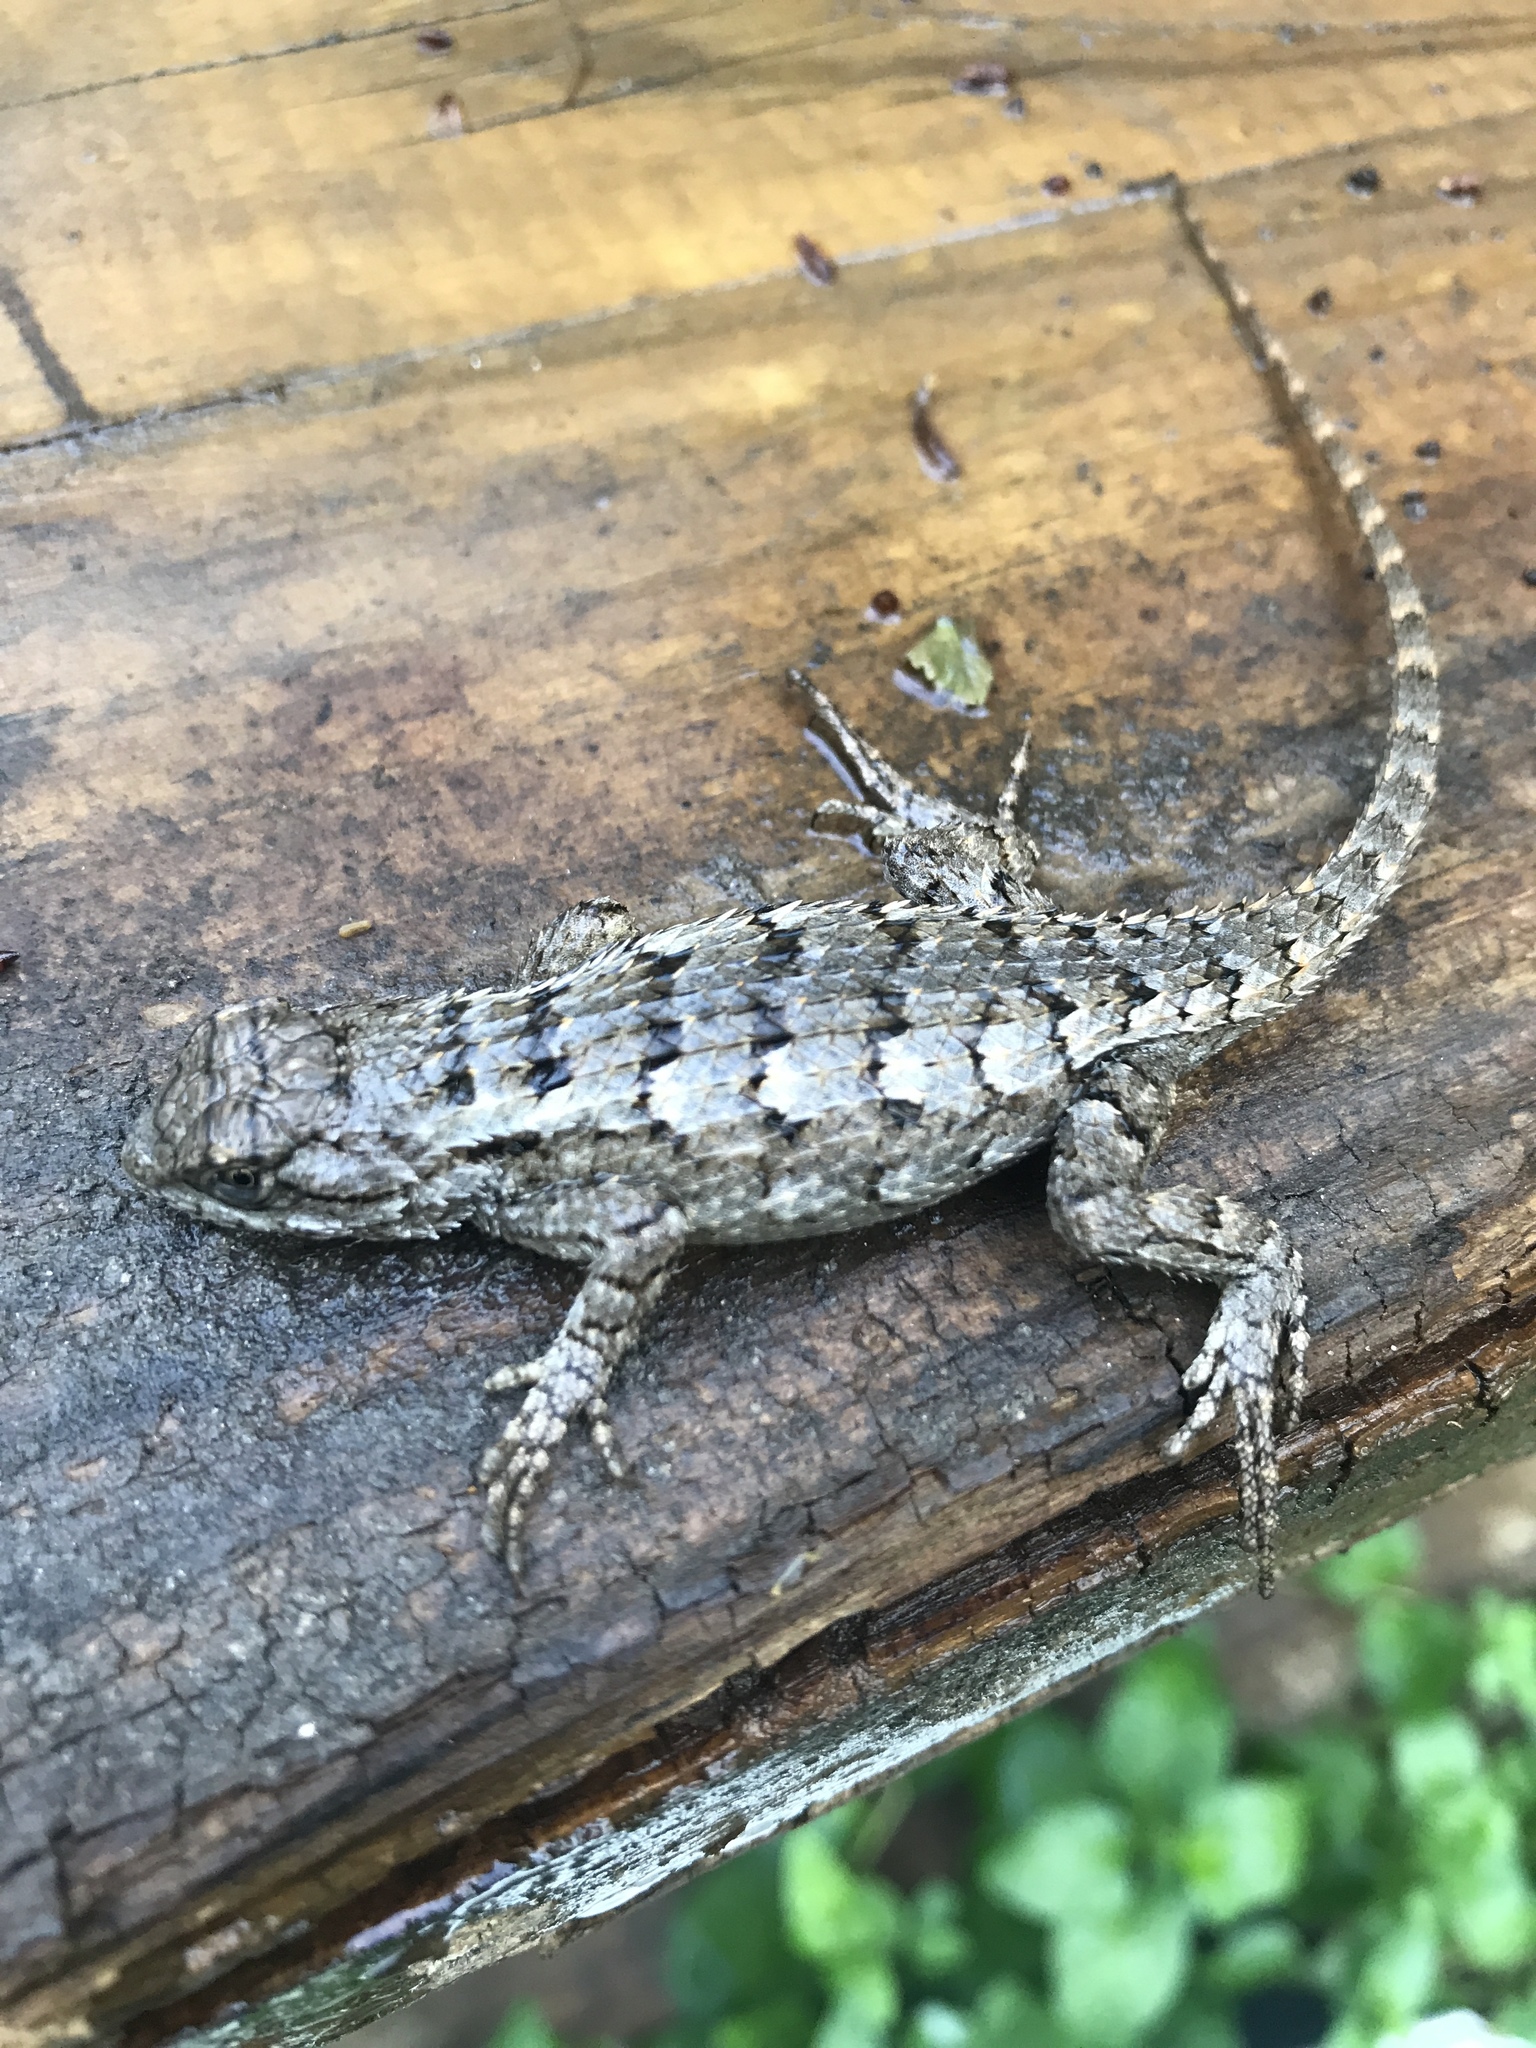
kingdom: Animalia
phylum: Chordata
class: Squamata
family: Phrynosomatidae
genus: Sceloporus
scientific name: Sceloporus olivaceus
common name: Texas spiny lizard
